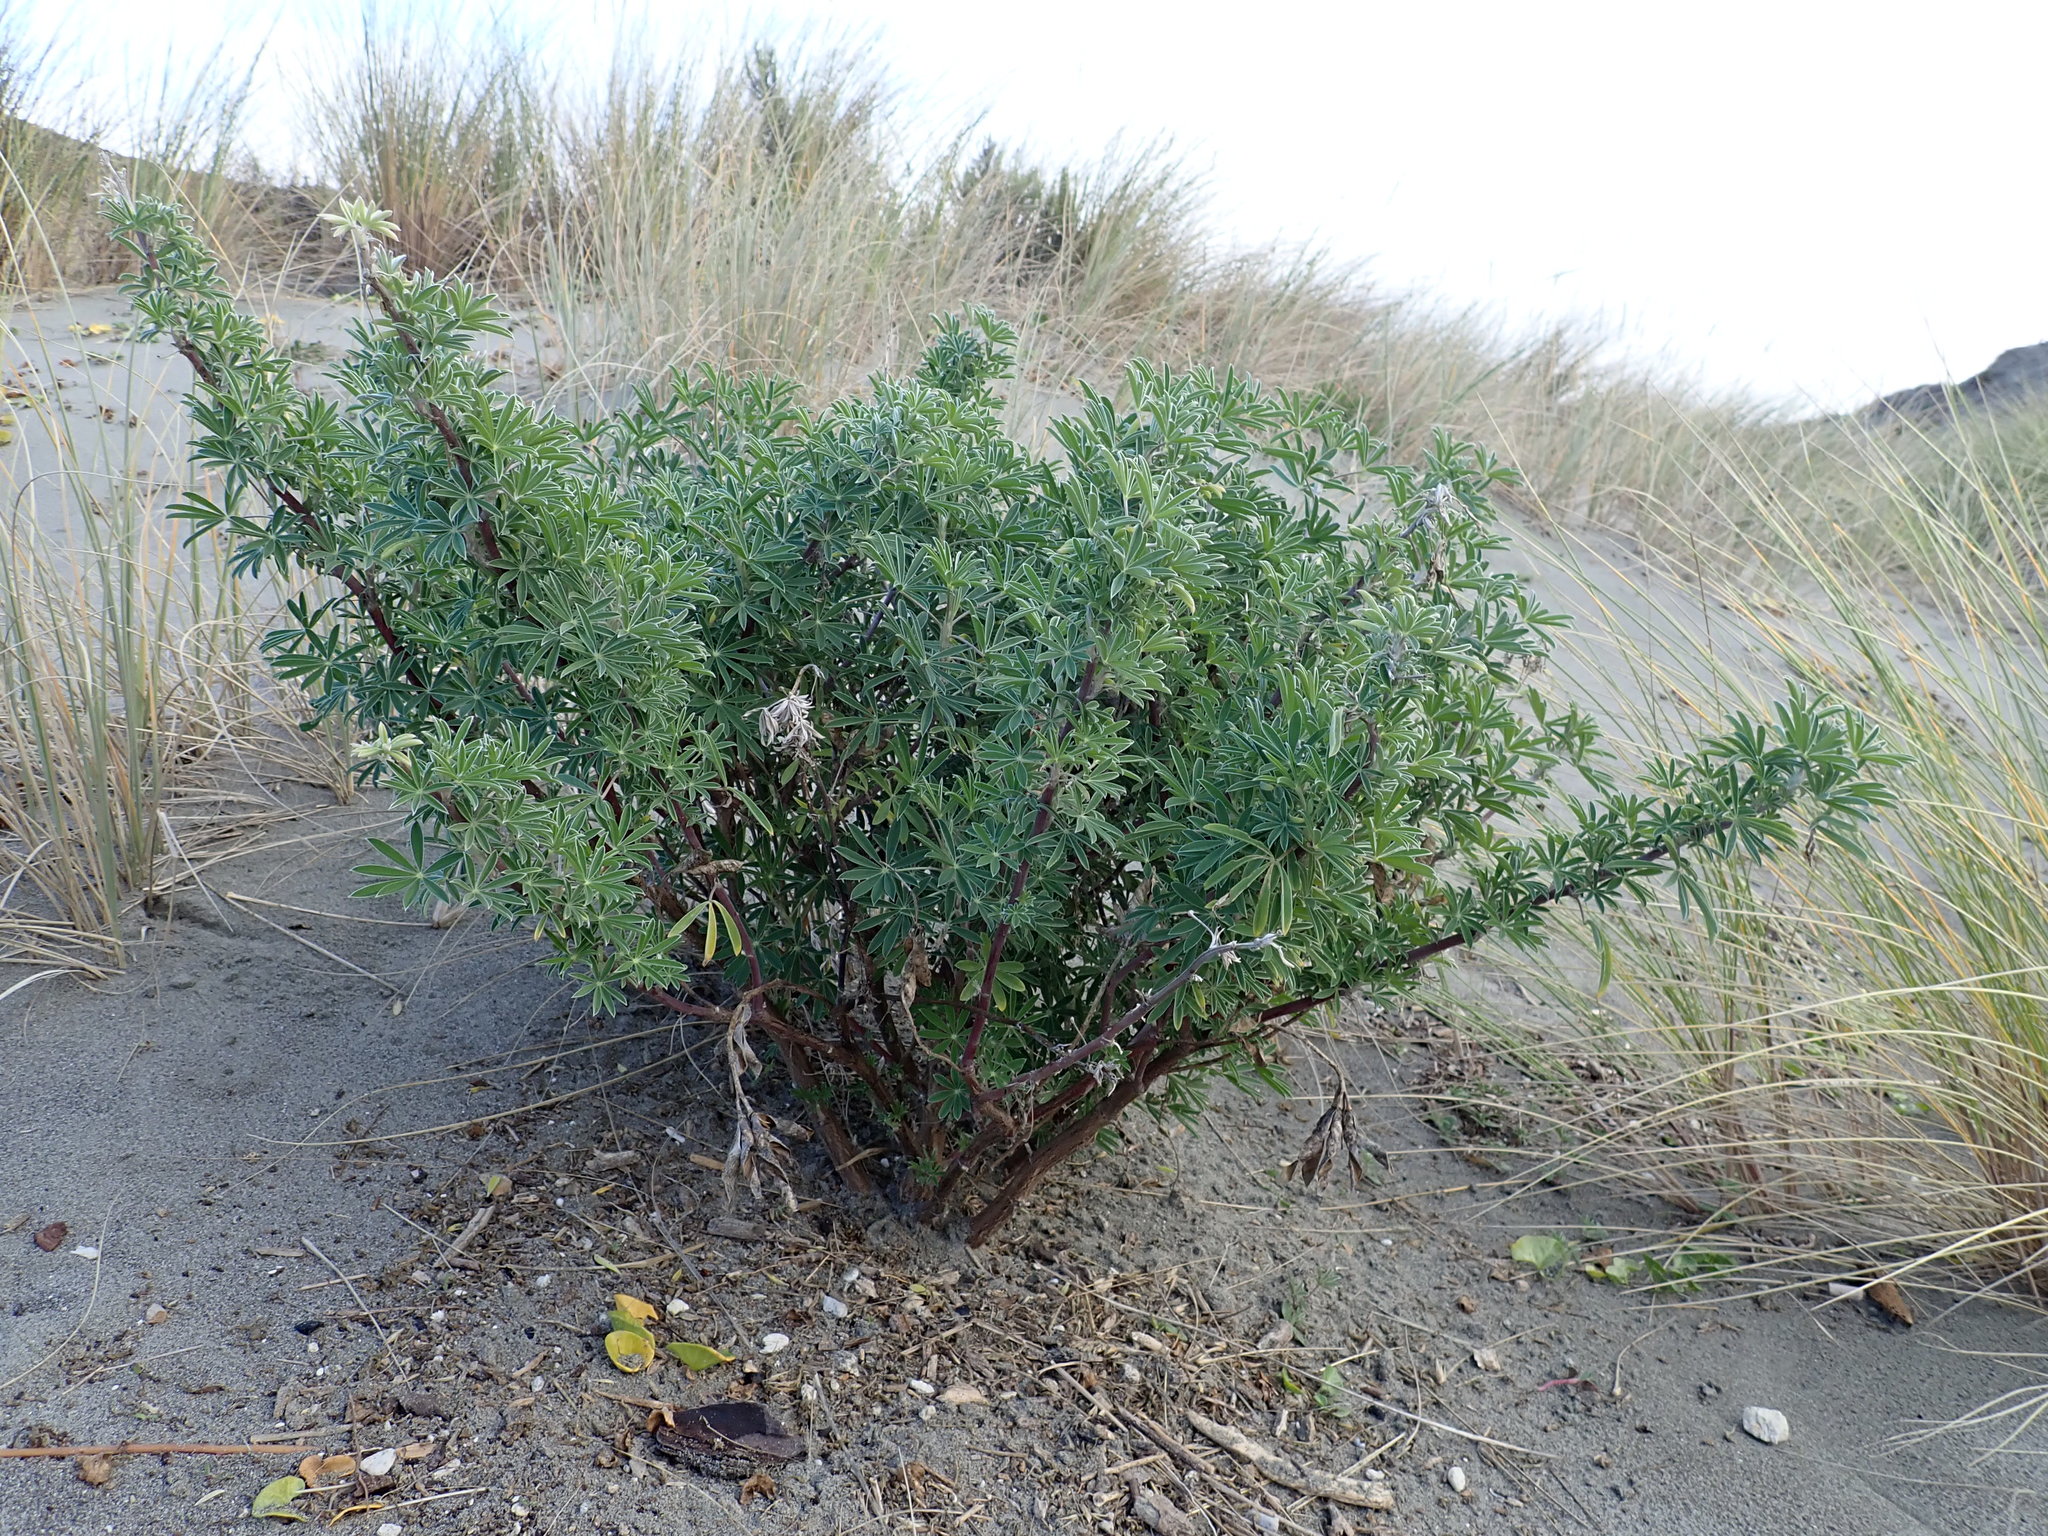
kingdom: Plantae
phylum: Tracheophyta
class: Magnoliopsida
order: Fabales
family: Fabaceae
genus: Lupinus
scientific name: Lupinus arboreus
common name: Yellow bush lupine
